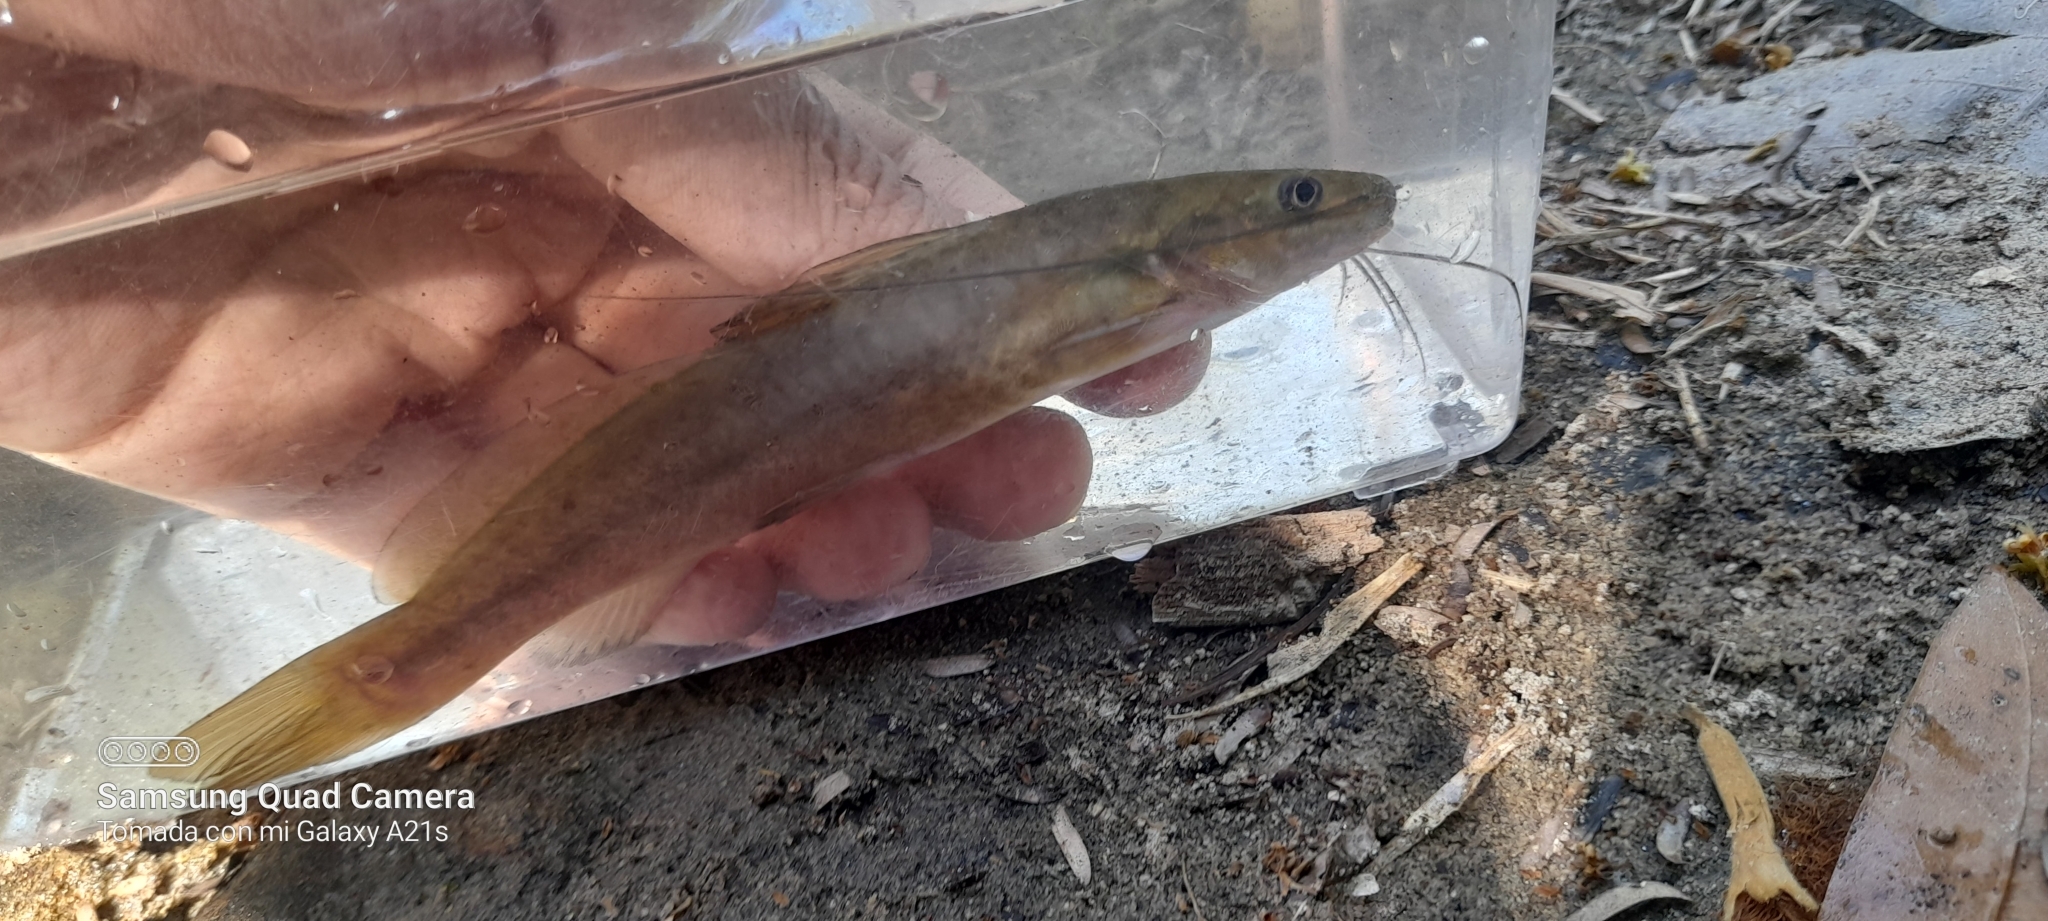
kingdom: Animalia
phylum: Chordata
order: Siluriformes
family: Heptapteridae
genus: Rhamdia
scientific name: Rhamdia guatemalensis
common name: Pale catfish
